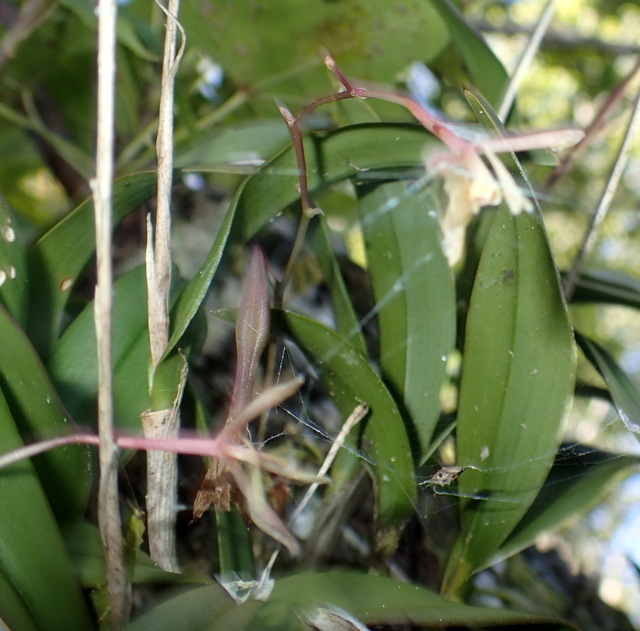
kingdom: Plantae
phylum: Tracheophyta
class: Liliopsida
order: Asparagales
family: Orchidaceae
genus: Epidendrum
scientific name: Epidendrum conopseum
